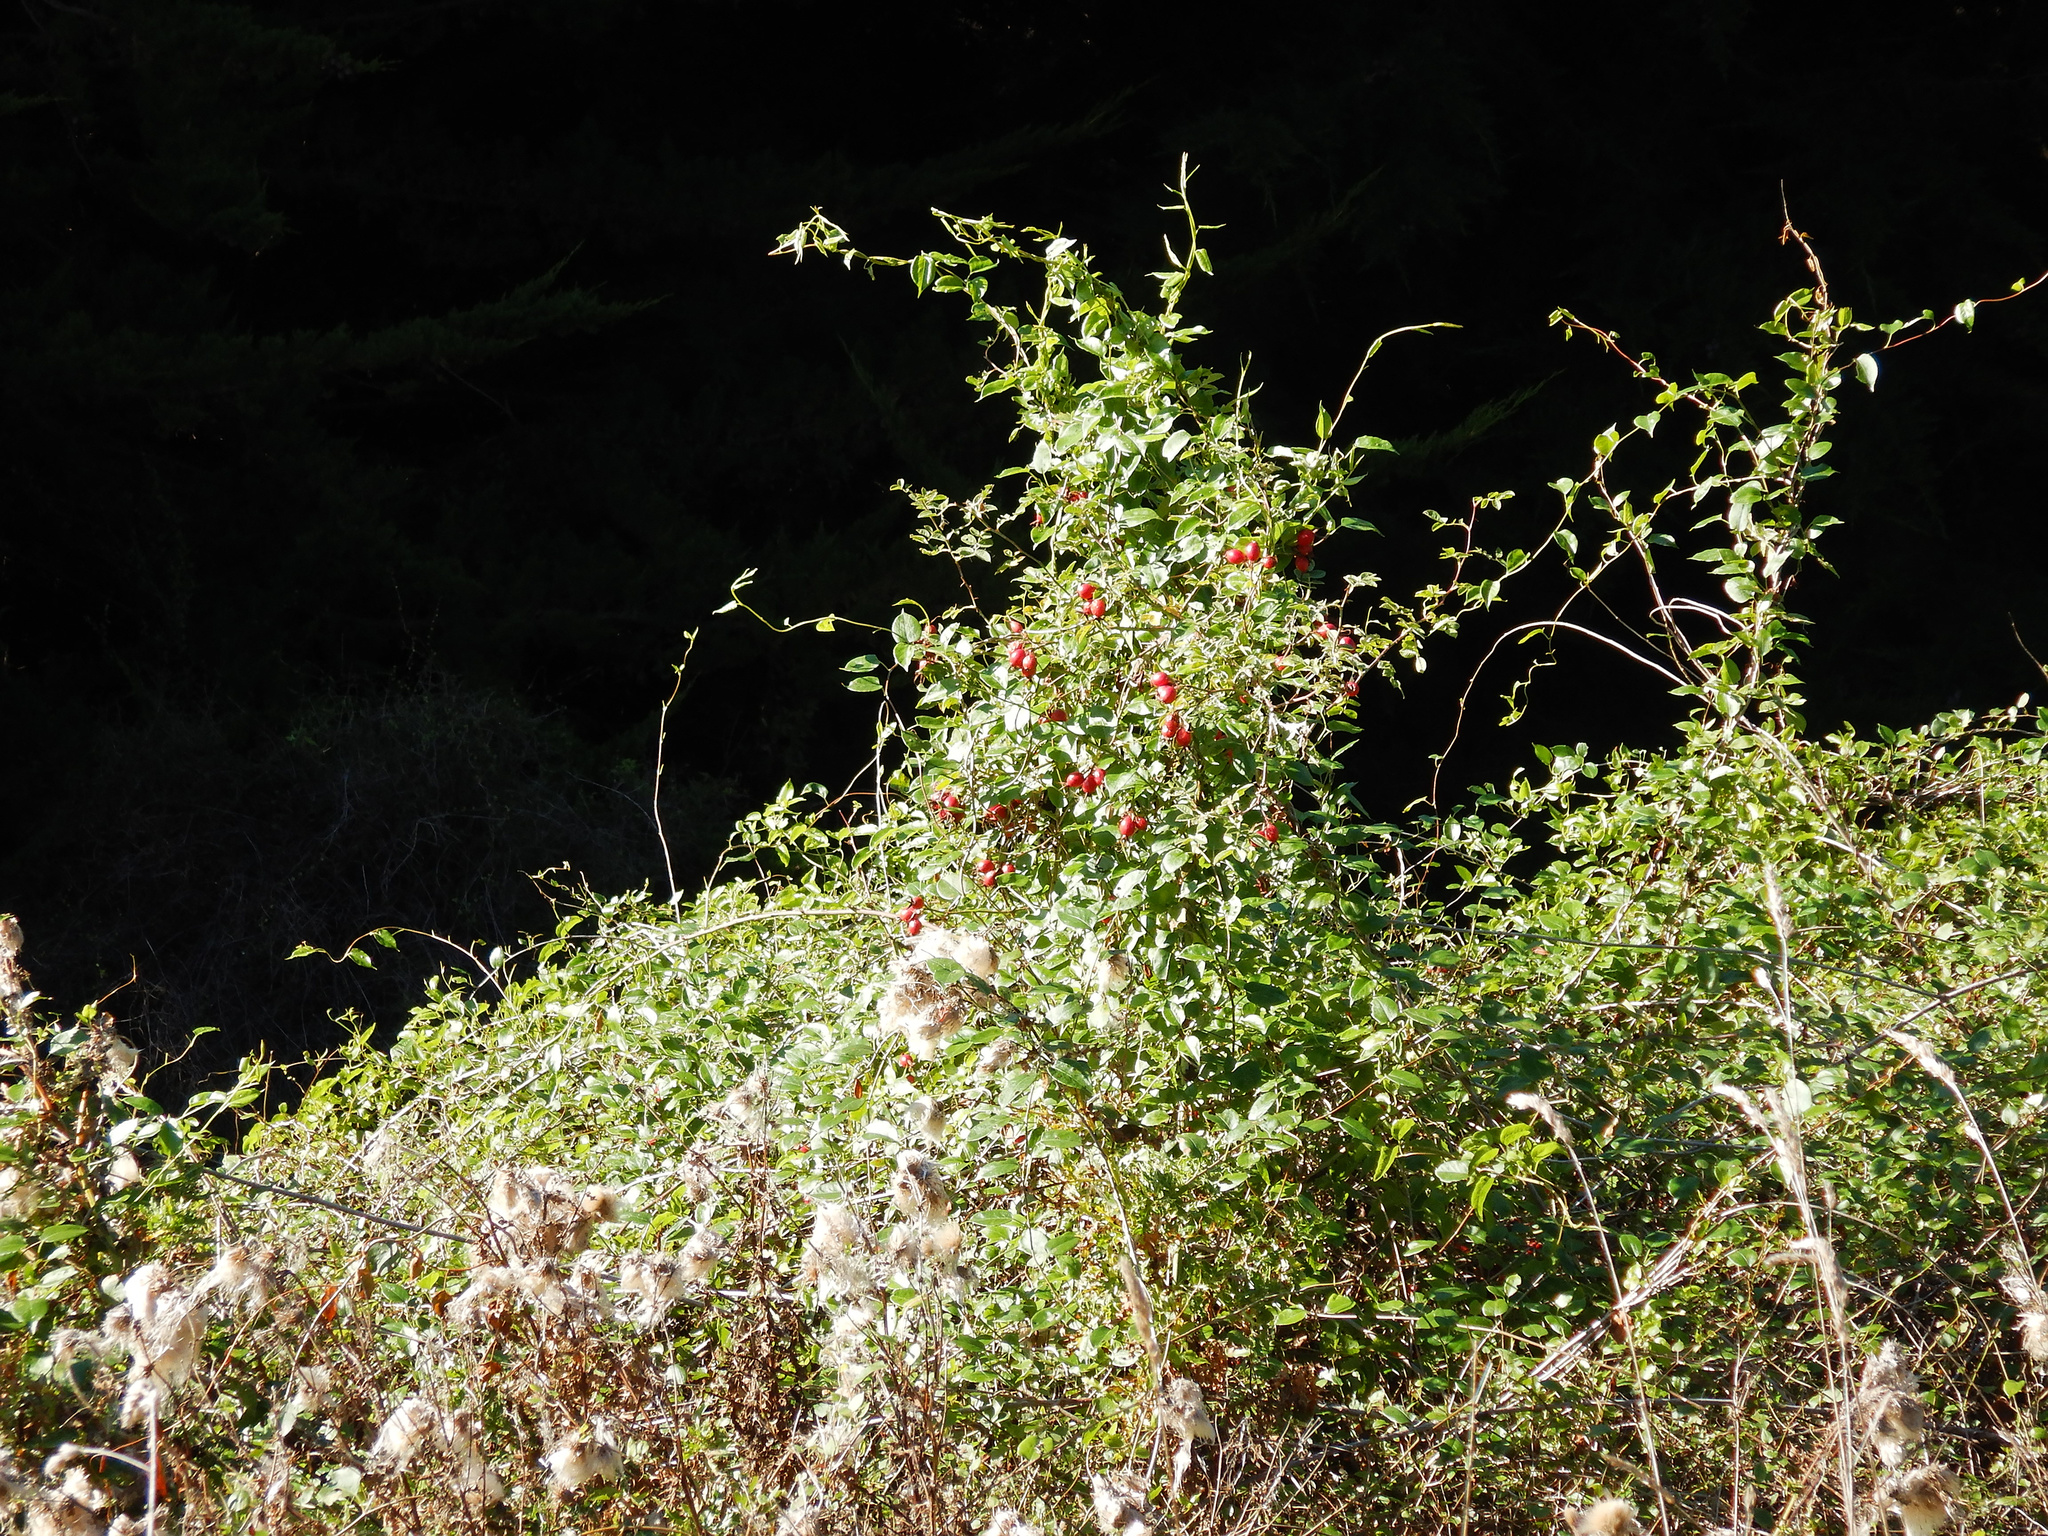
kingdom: Plantae
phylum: Tracheophyta
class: Magnoliopsida
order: Caryophyllales
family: Polygonaceae
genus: Muehlenbeckia
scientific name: Muehlenbeckia australis
